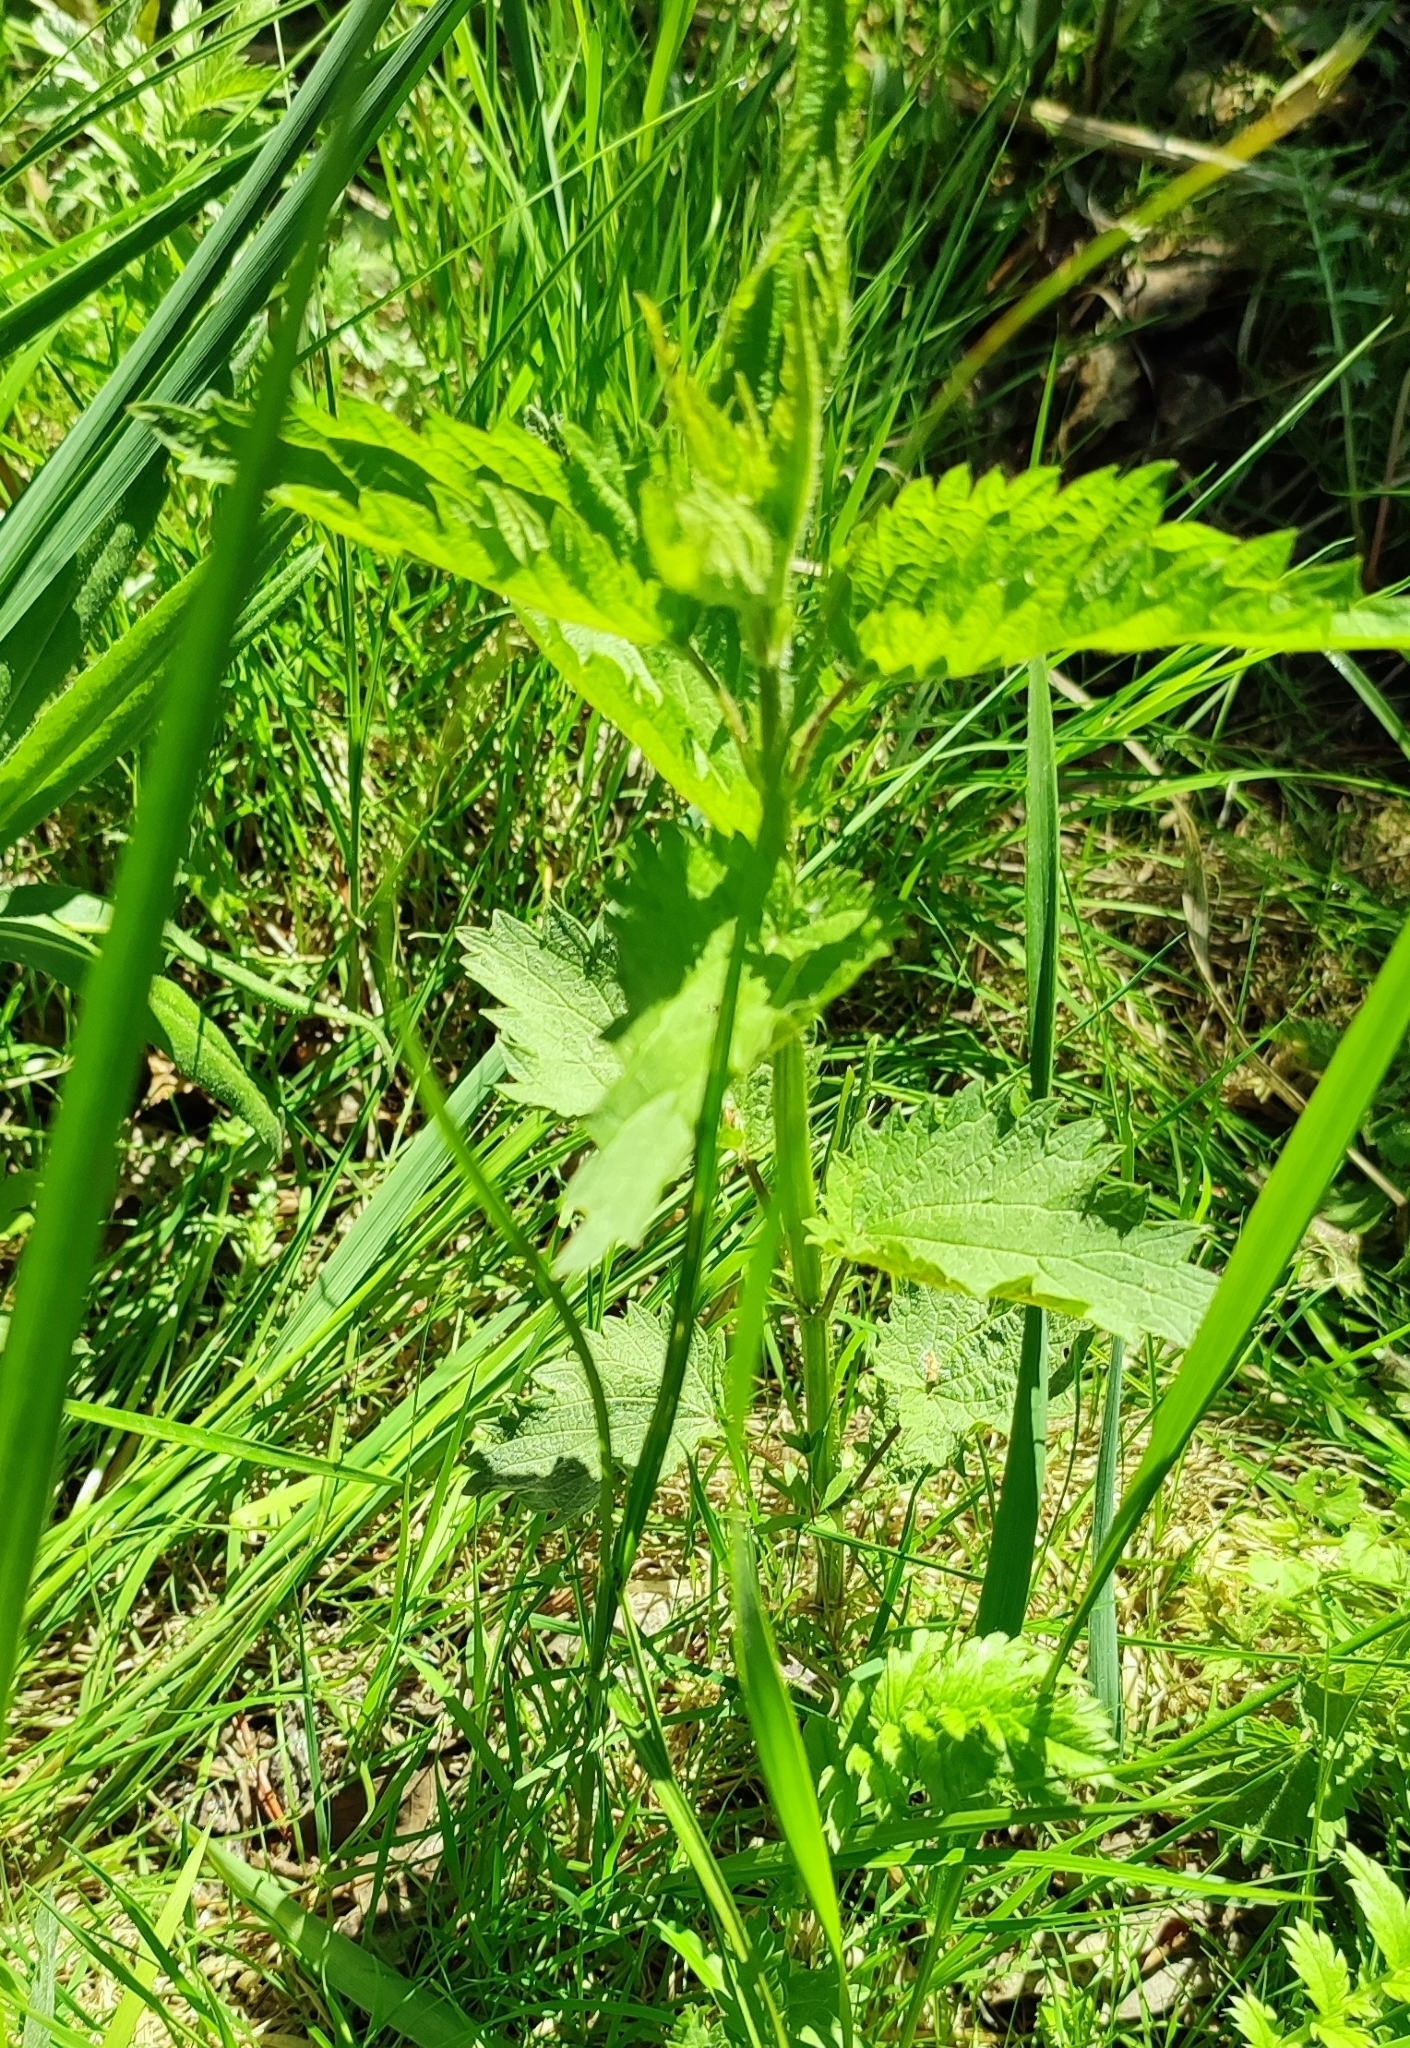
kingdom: Plantae
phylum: Tracheophyta
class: Magnoliopsida
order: Rosales
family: Urticaceae
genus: Urtica
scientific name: Urtica dioica
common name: Common nettle
